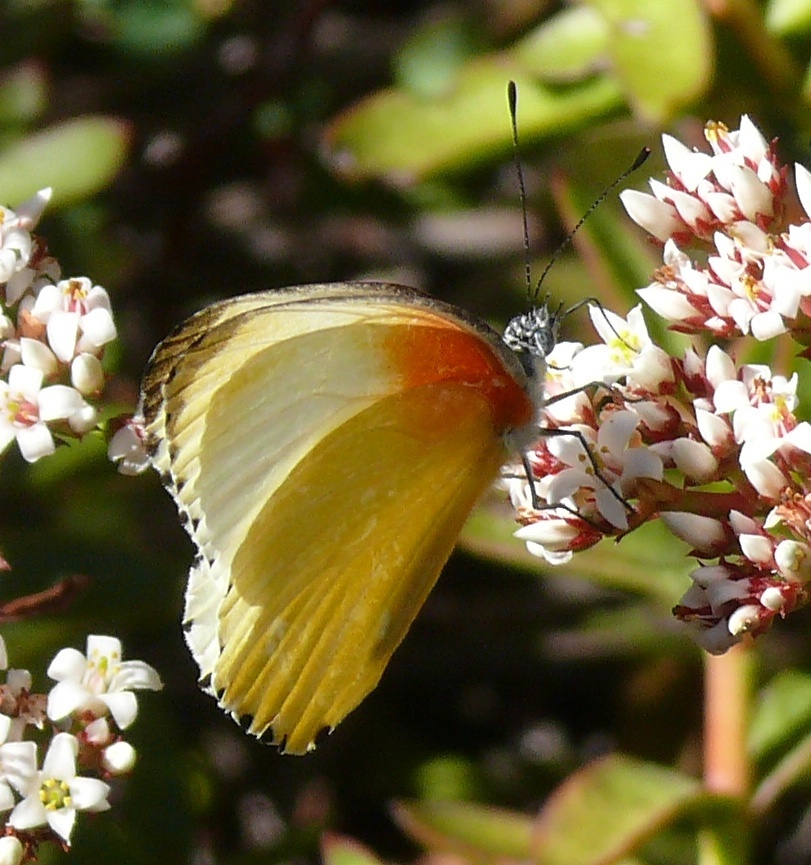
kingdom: Animalia
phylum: Arthropoda
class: Insecta
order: Lepidoptera
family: Pieridae
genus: Mylothris
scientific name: Mylothris agathina
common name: Eastern dotted border
